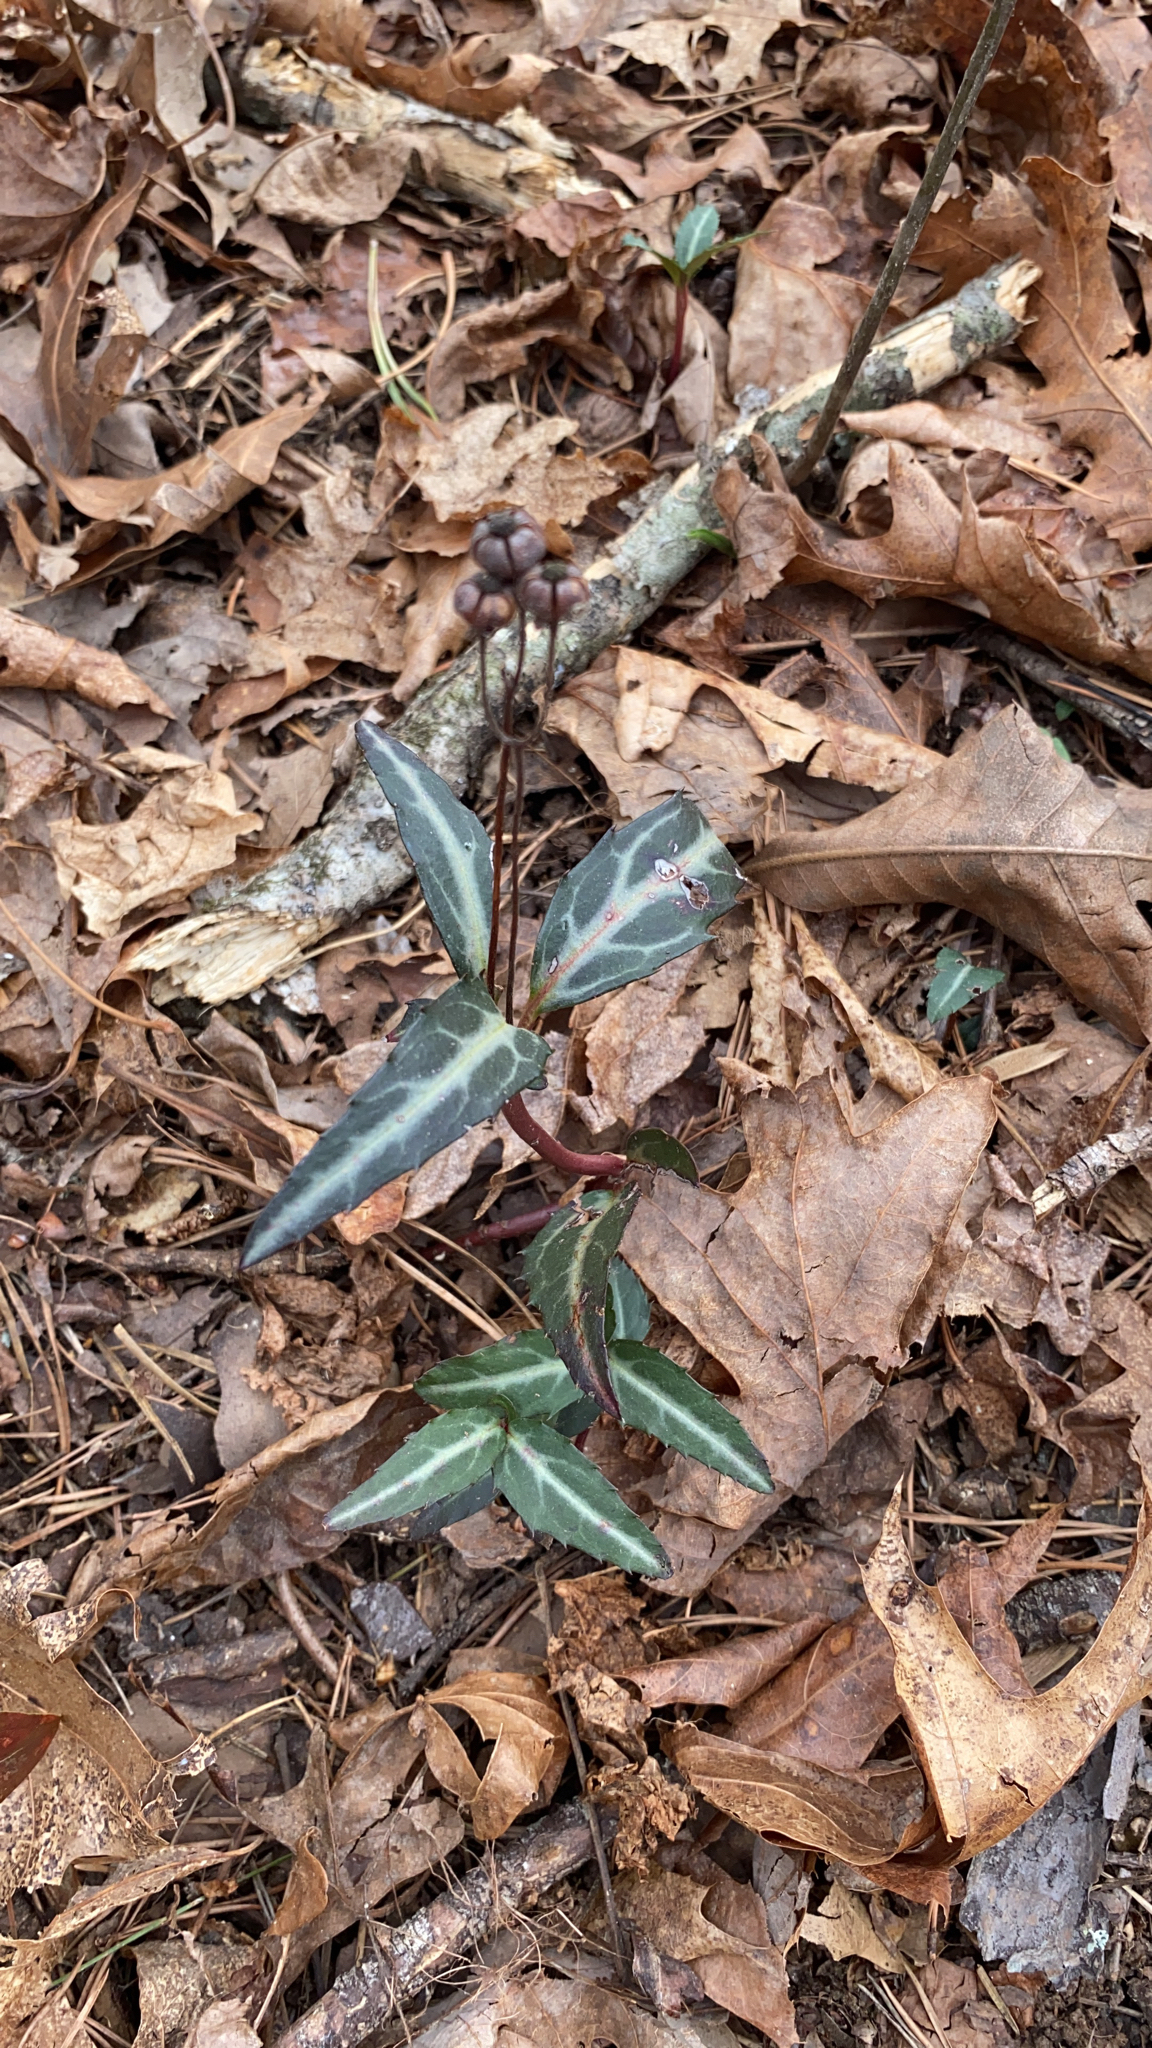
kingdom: Plantae
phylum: Tracheophyta
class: Magnoliopsida
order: Ericales
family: Ericaceae
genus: Chimaphila
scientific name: Chimaphila maculata
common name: Spotted pipsissewa
